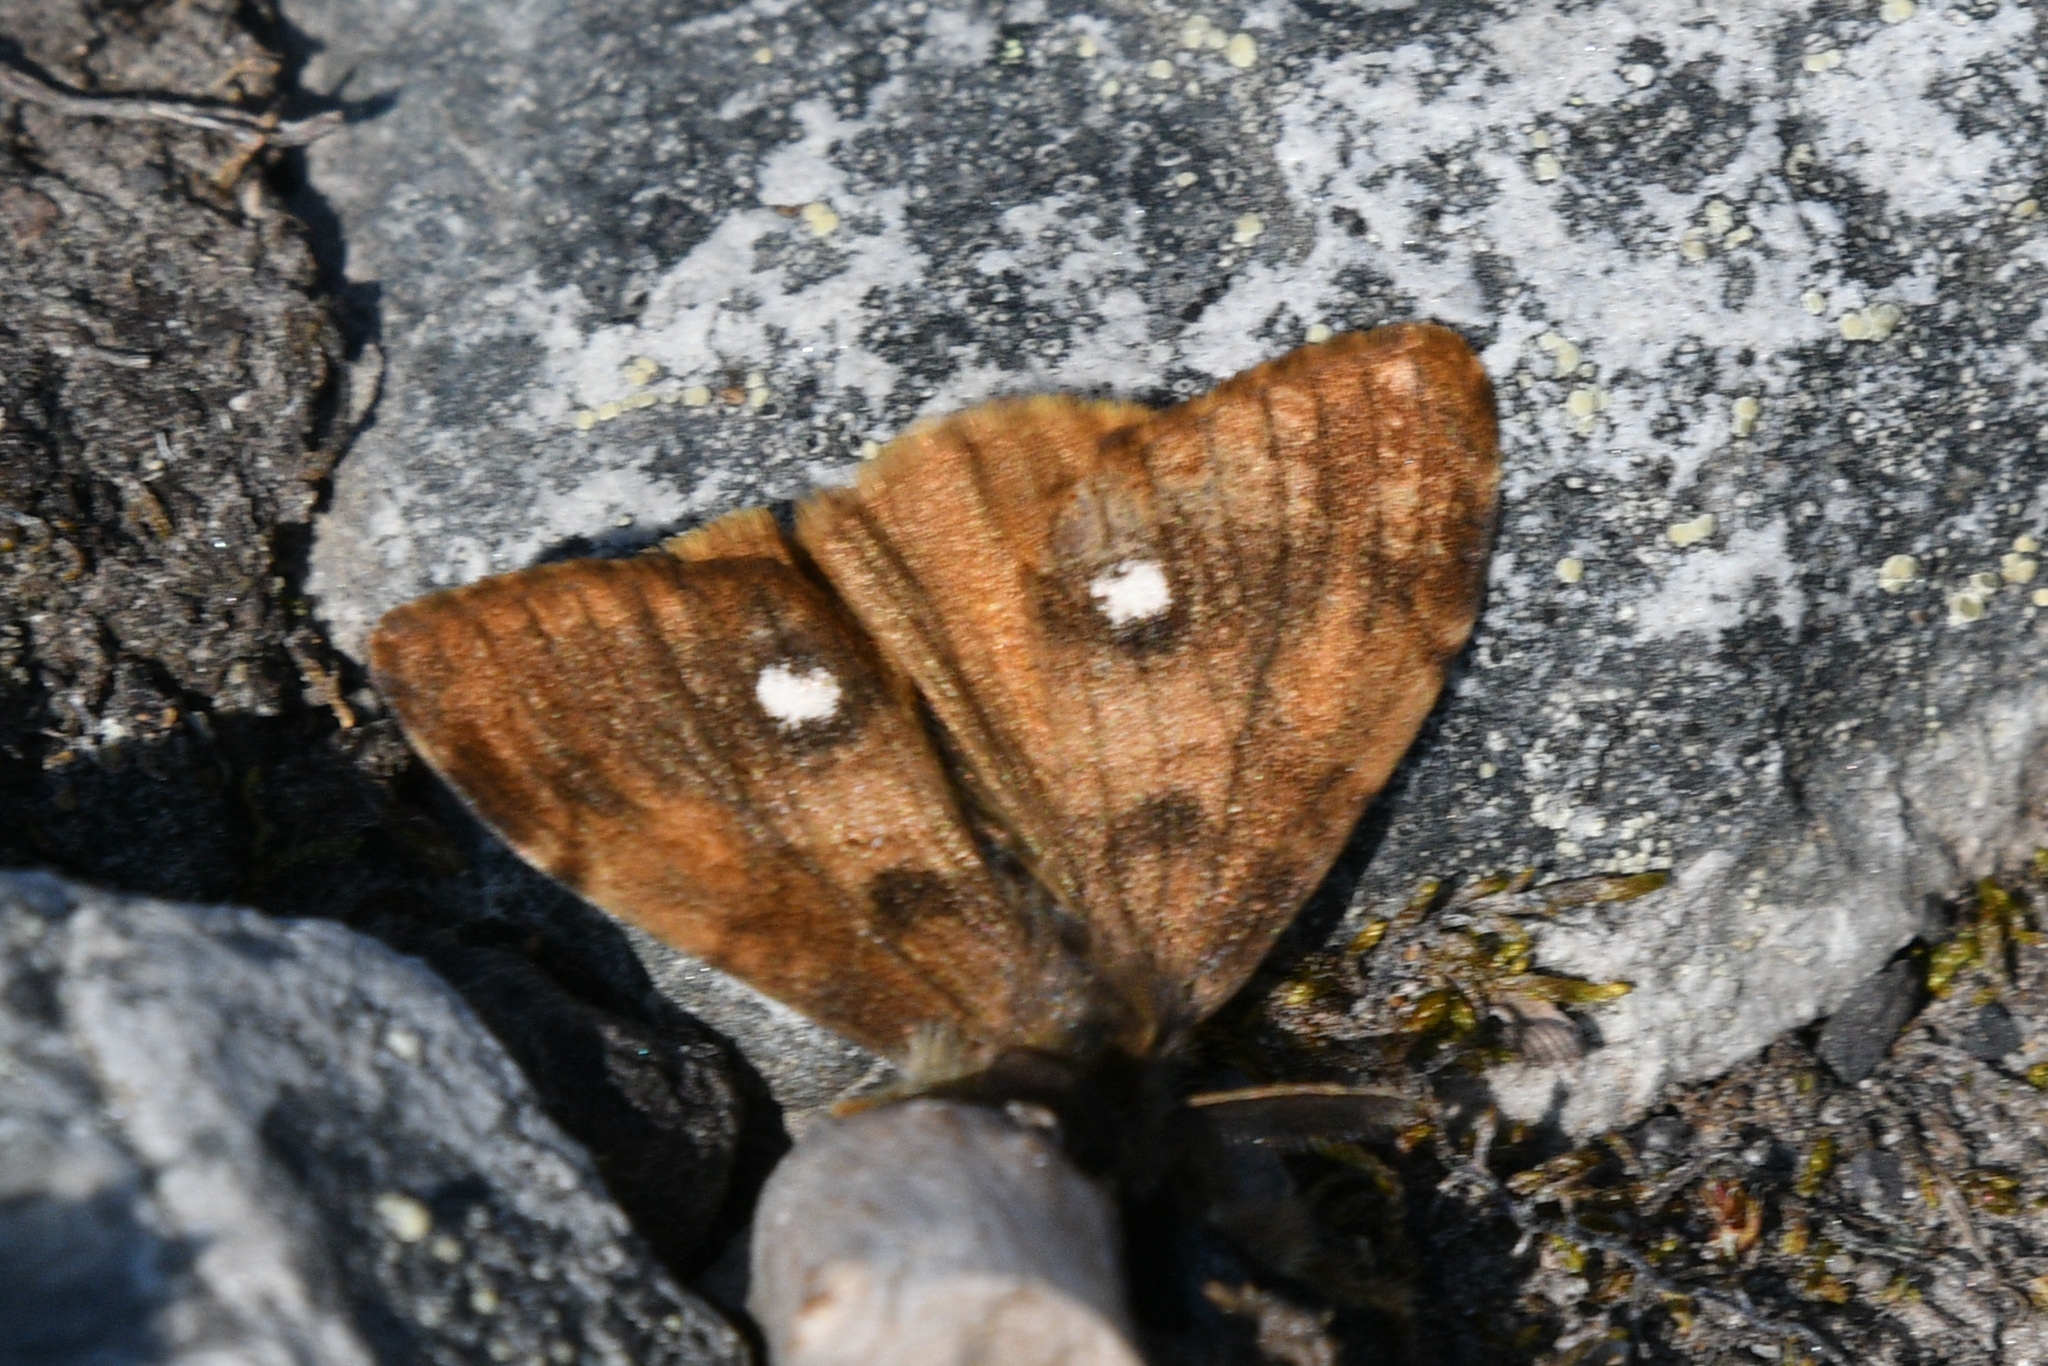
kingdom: Animalia
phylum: Arthropoda
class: Insecta
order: Lepidoptera
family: Erebidae
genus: Orgyia
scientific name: Orgyia antiqua
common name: Vapourer
